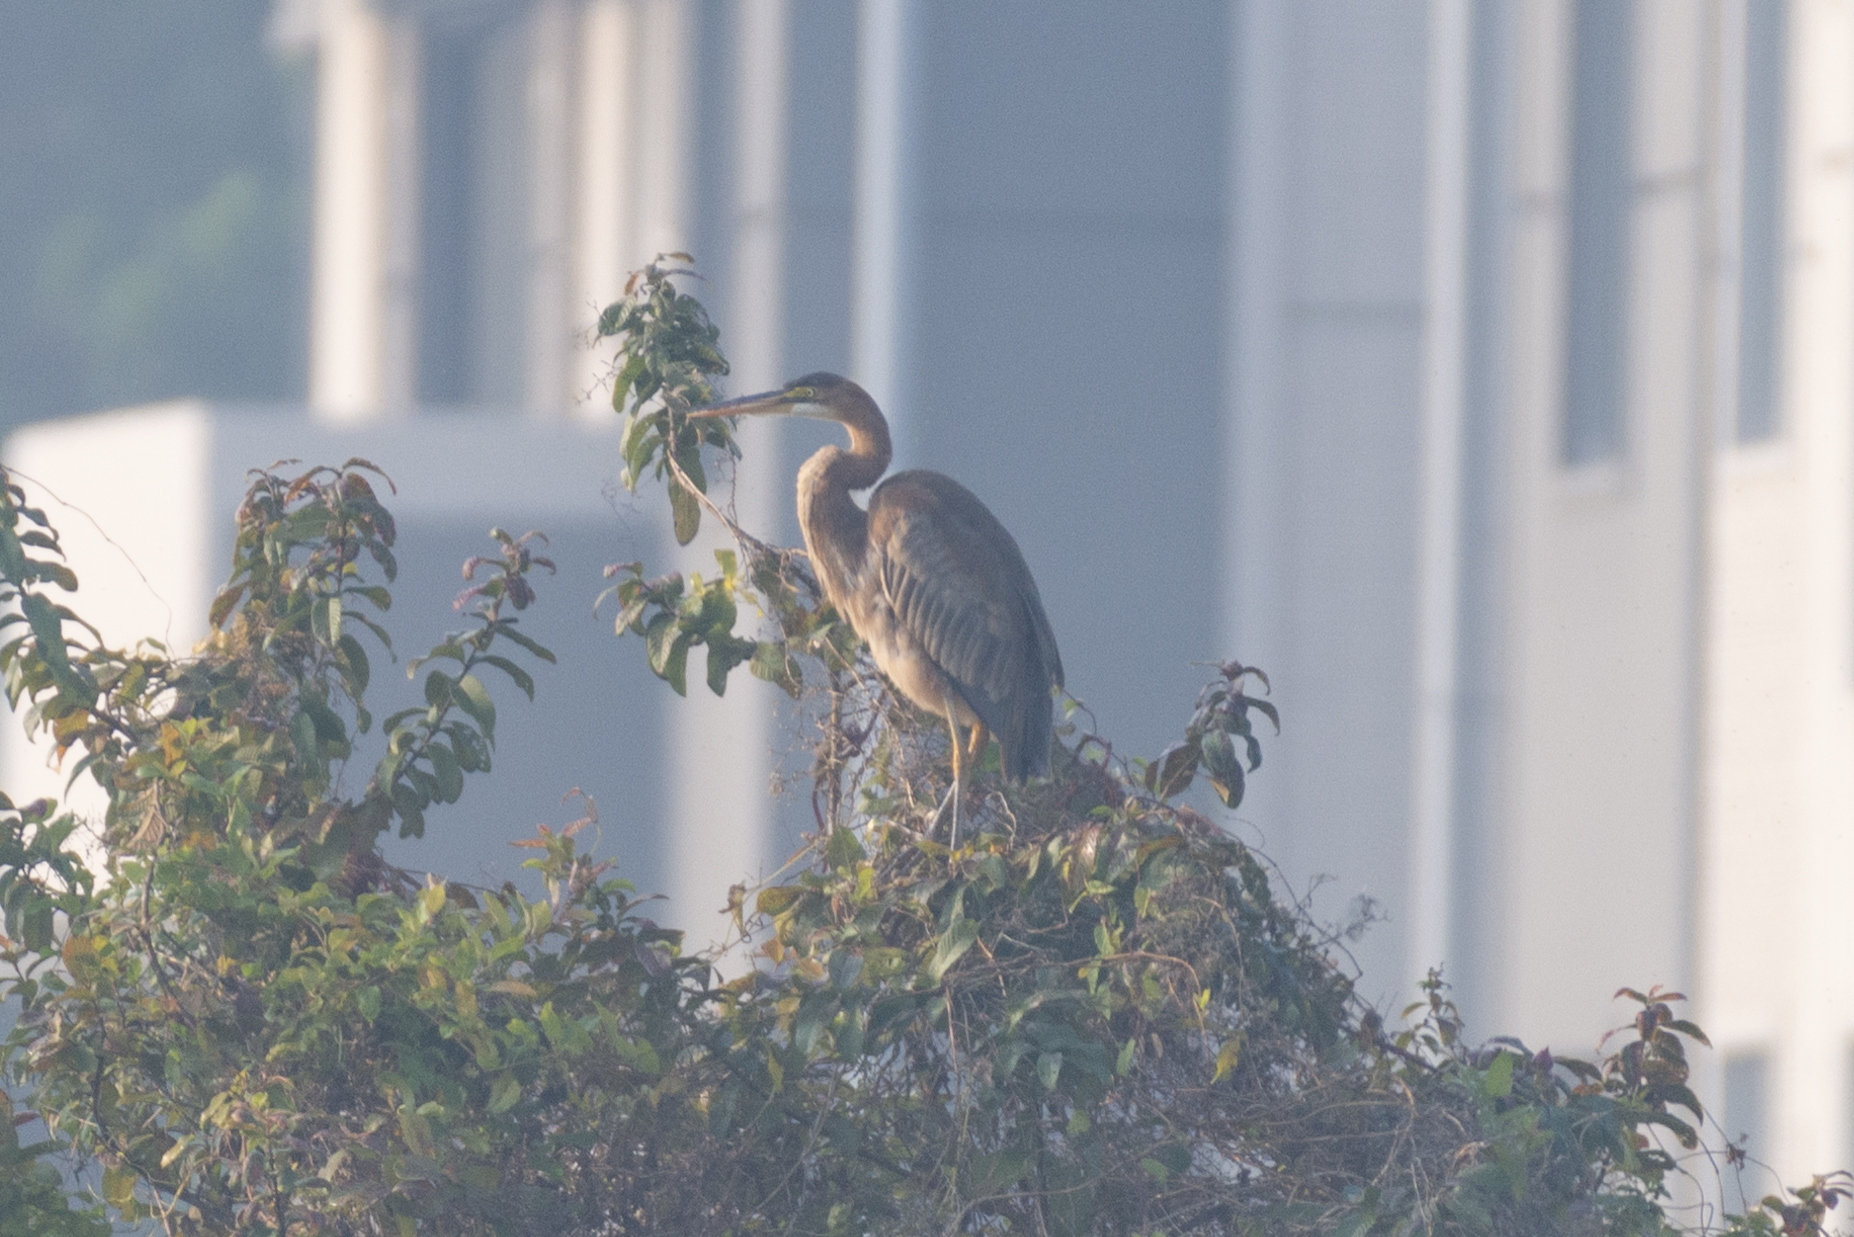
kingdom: Animalia
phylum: Chordata
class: Aves
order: Pelecaniformes
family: Ardeidae
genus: Ardea
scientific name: Ardea purpurea
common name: Purple heron
